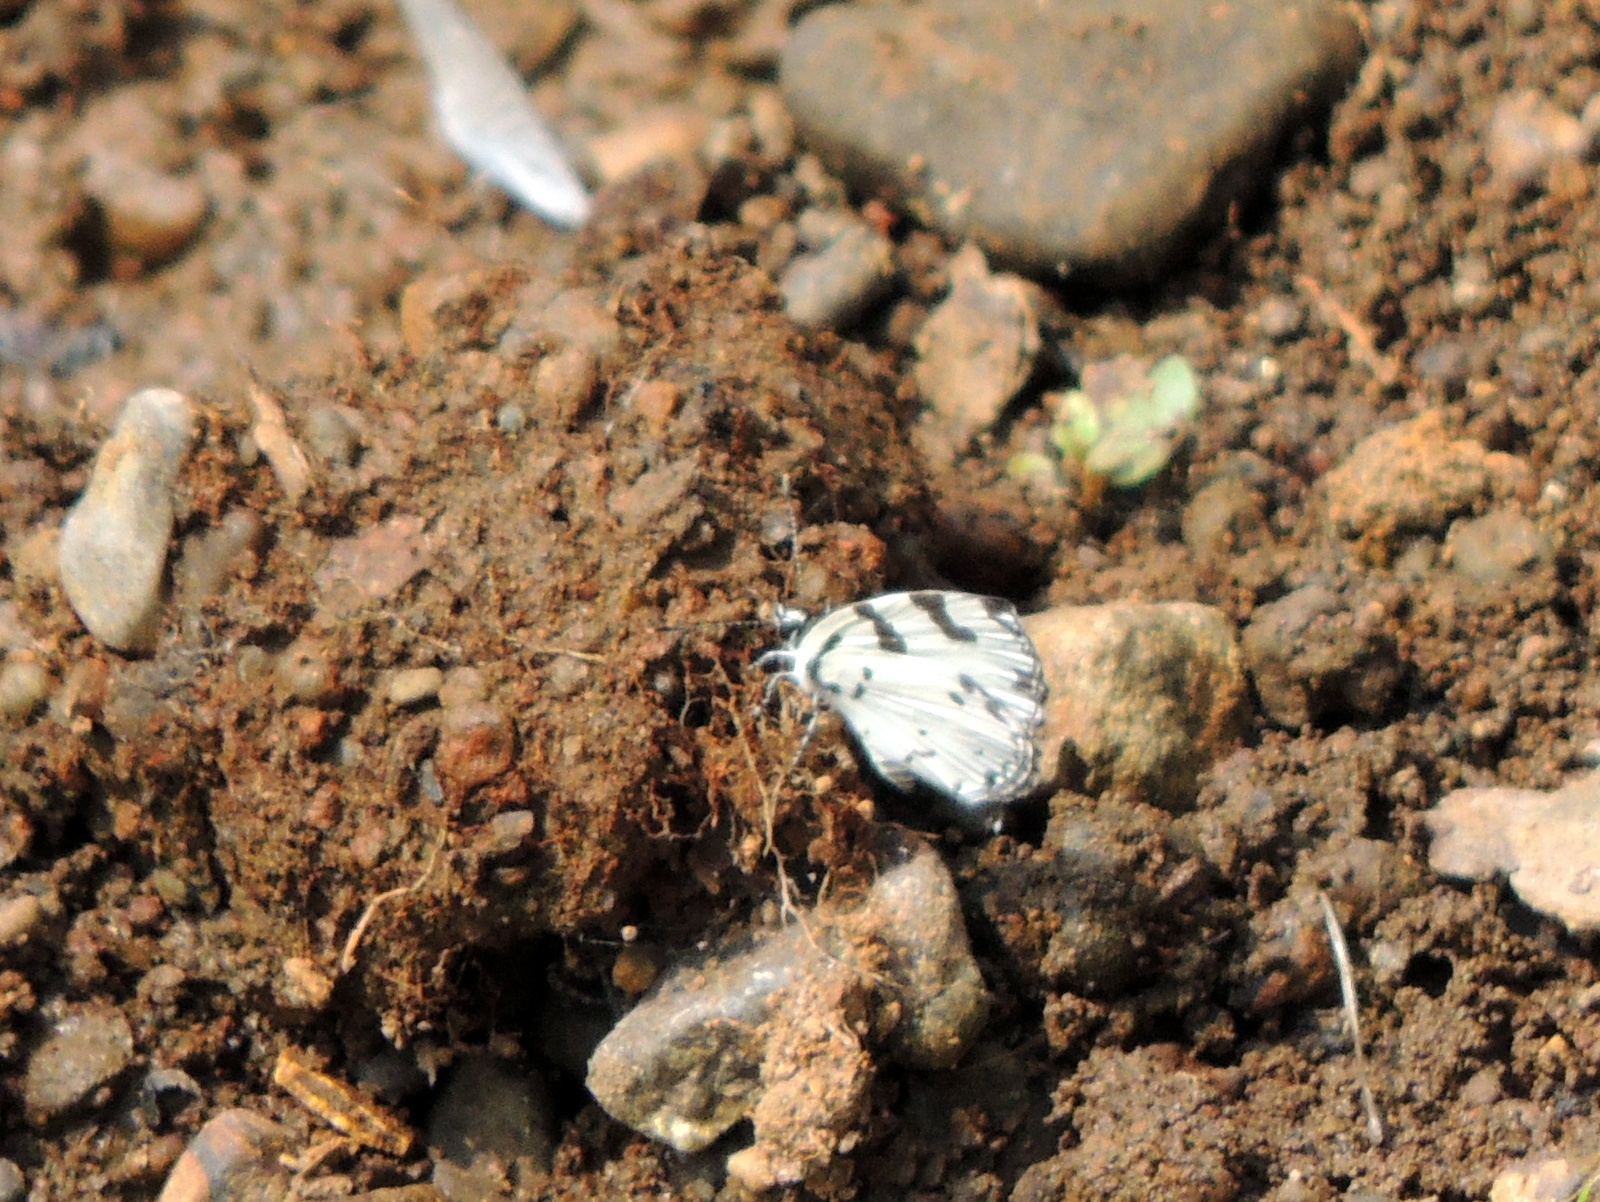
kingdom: Animalia
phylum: Arthropoda
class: Insecta
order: Lepidoptera
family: Lycaenidae
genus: Caleta
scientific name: Caleta decidia
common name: Angled pierrot
